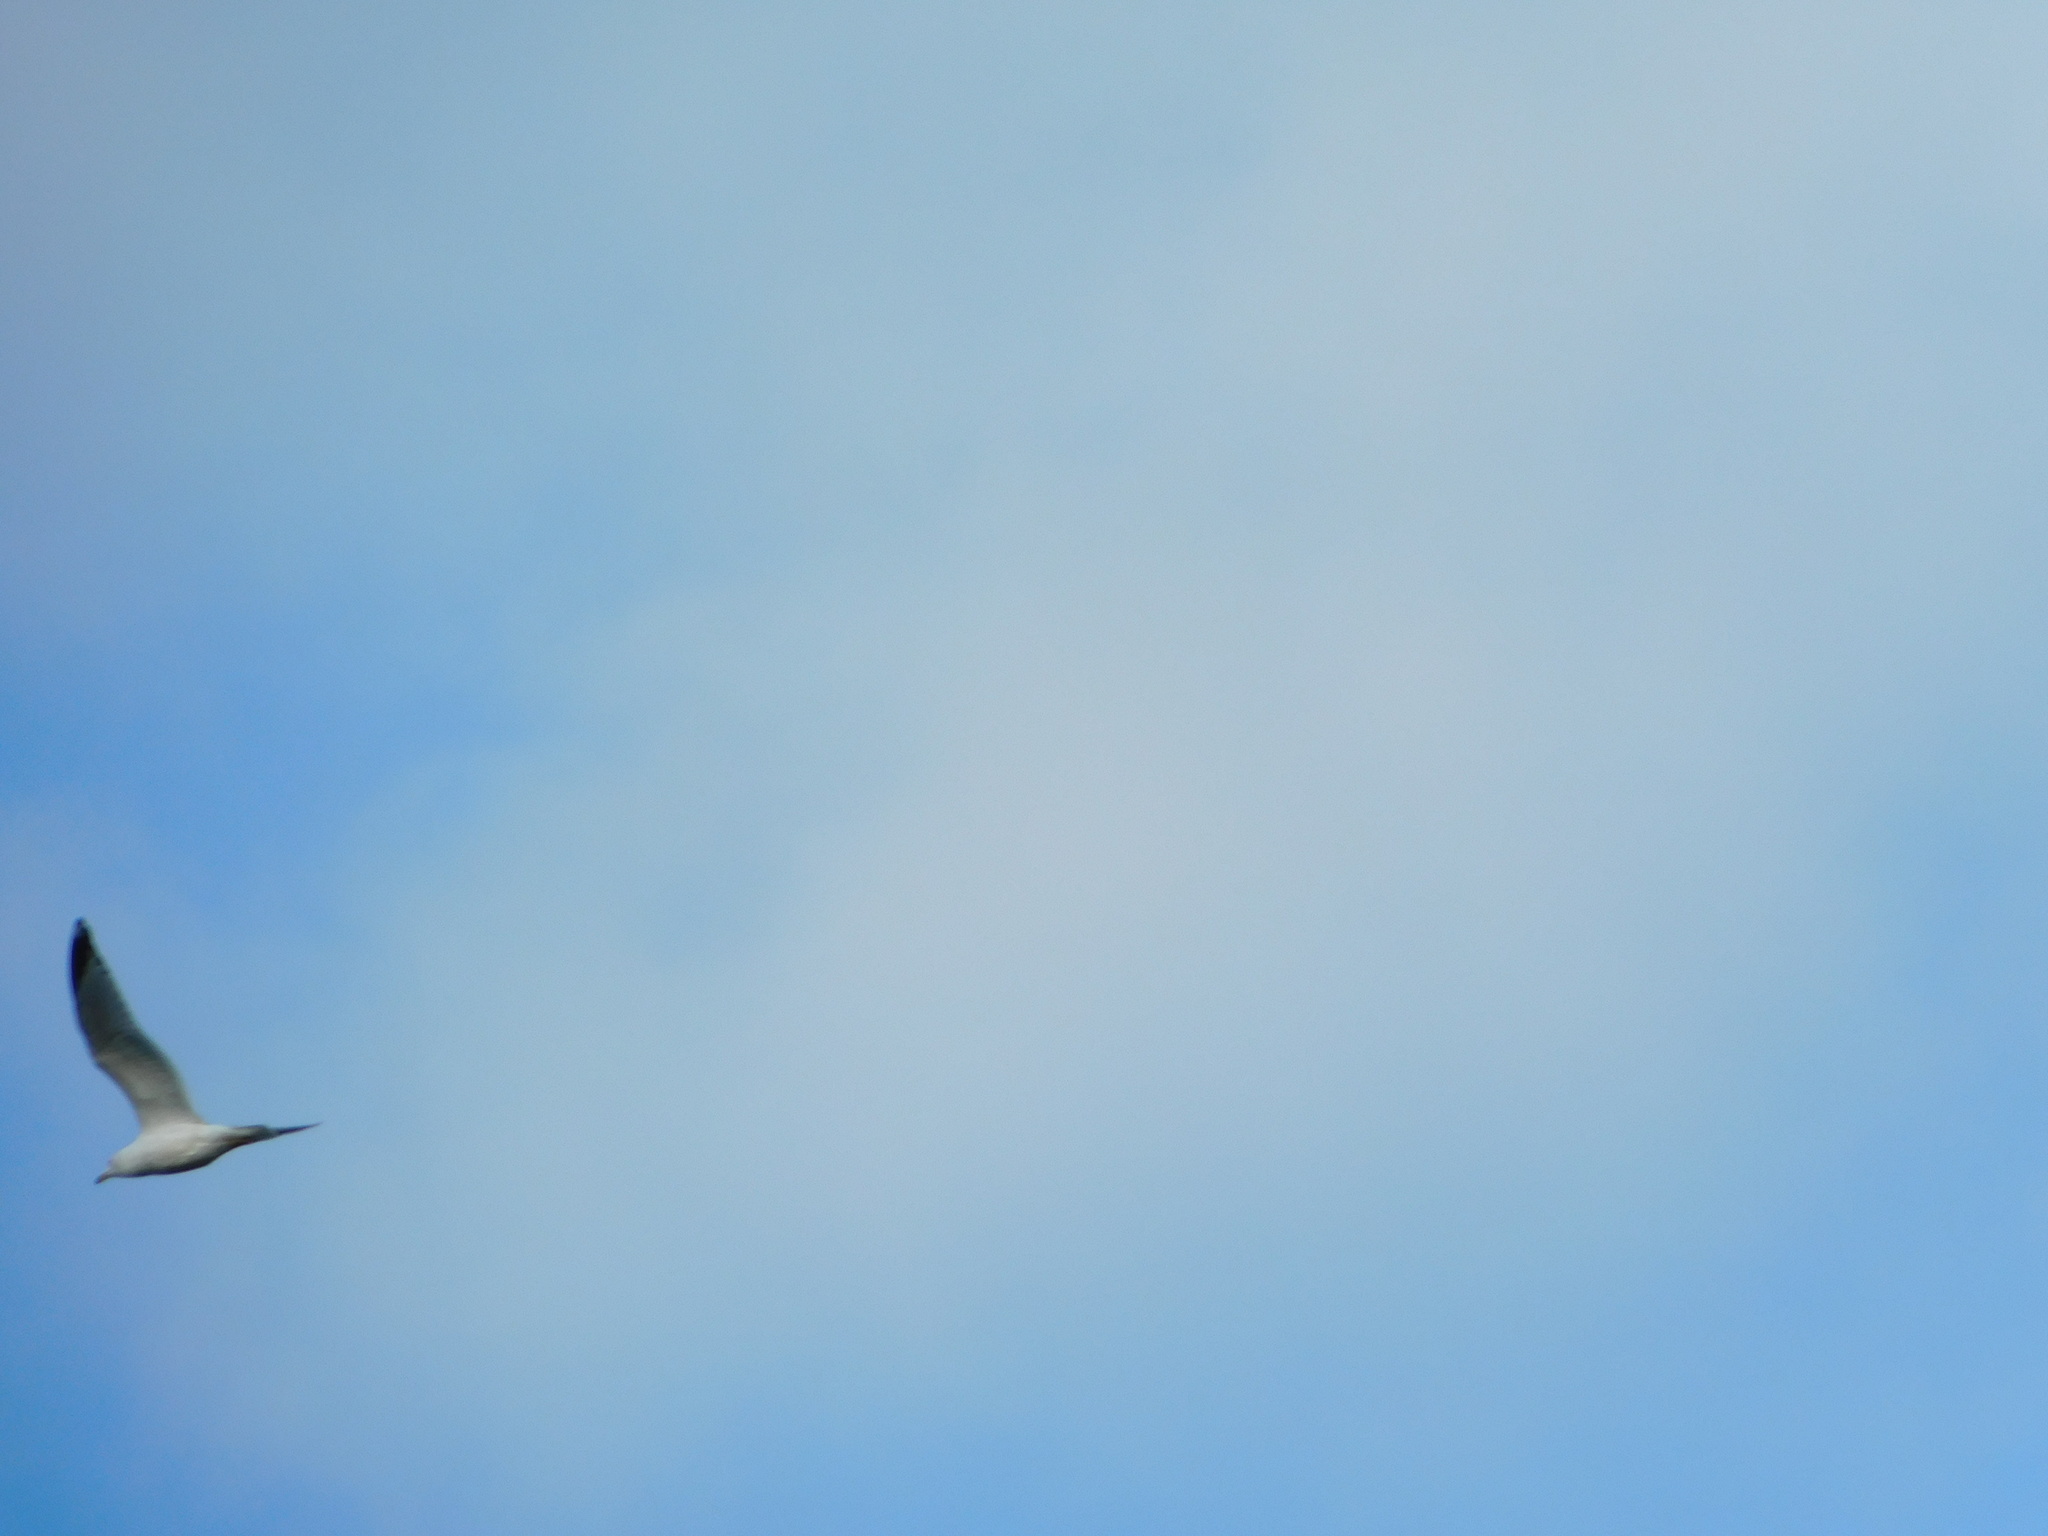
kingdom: Animalia
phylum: Chordata
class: Aves
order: Charadriiformes
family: Laridae
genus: Larus
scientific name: Larus delawarensis
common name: Ring-billed gull
